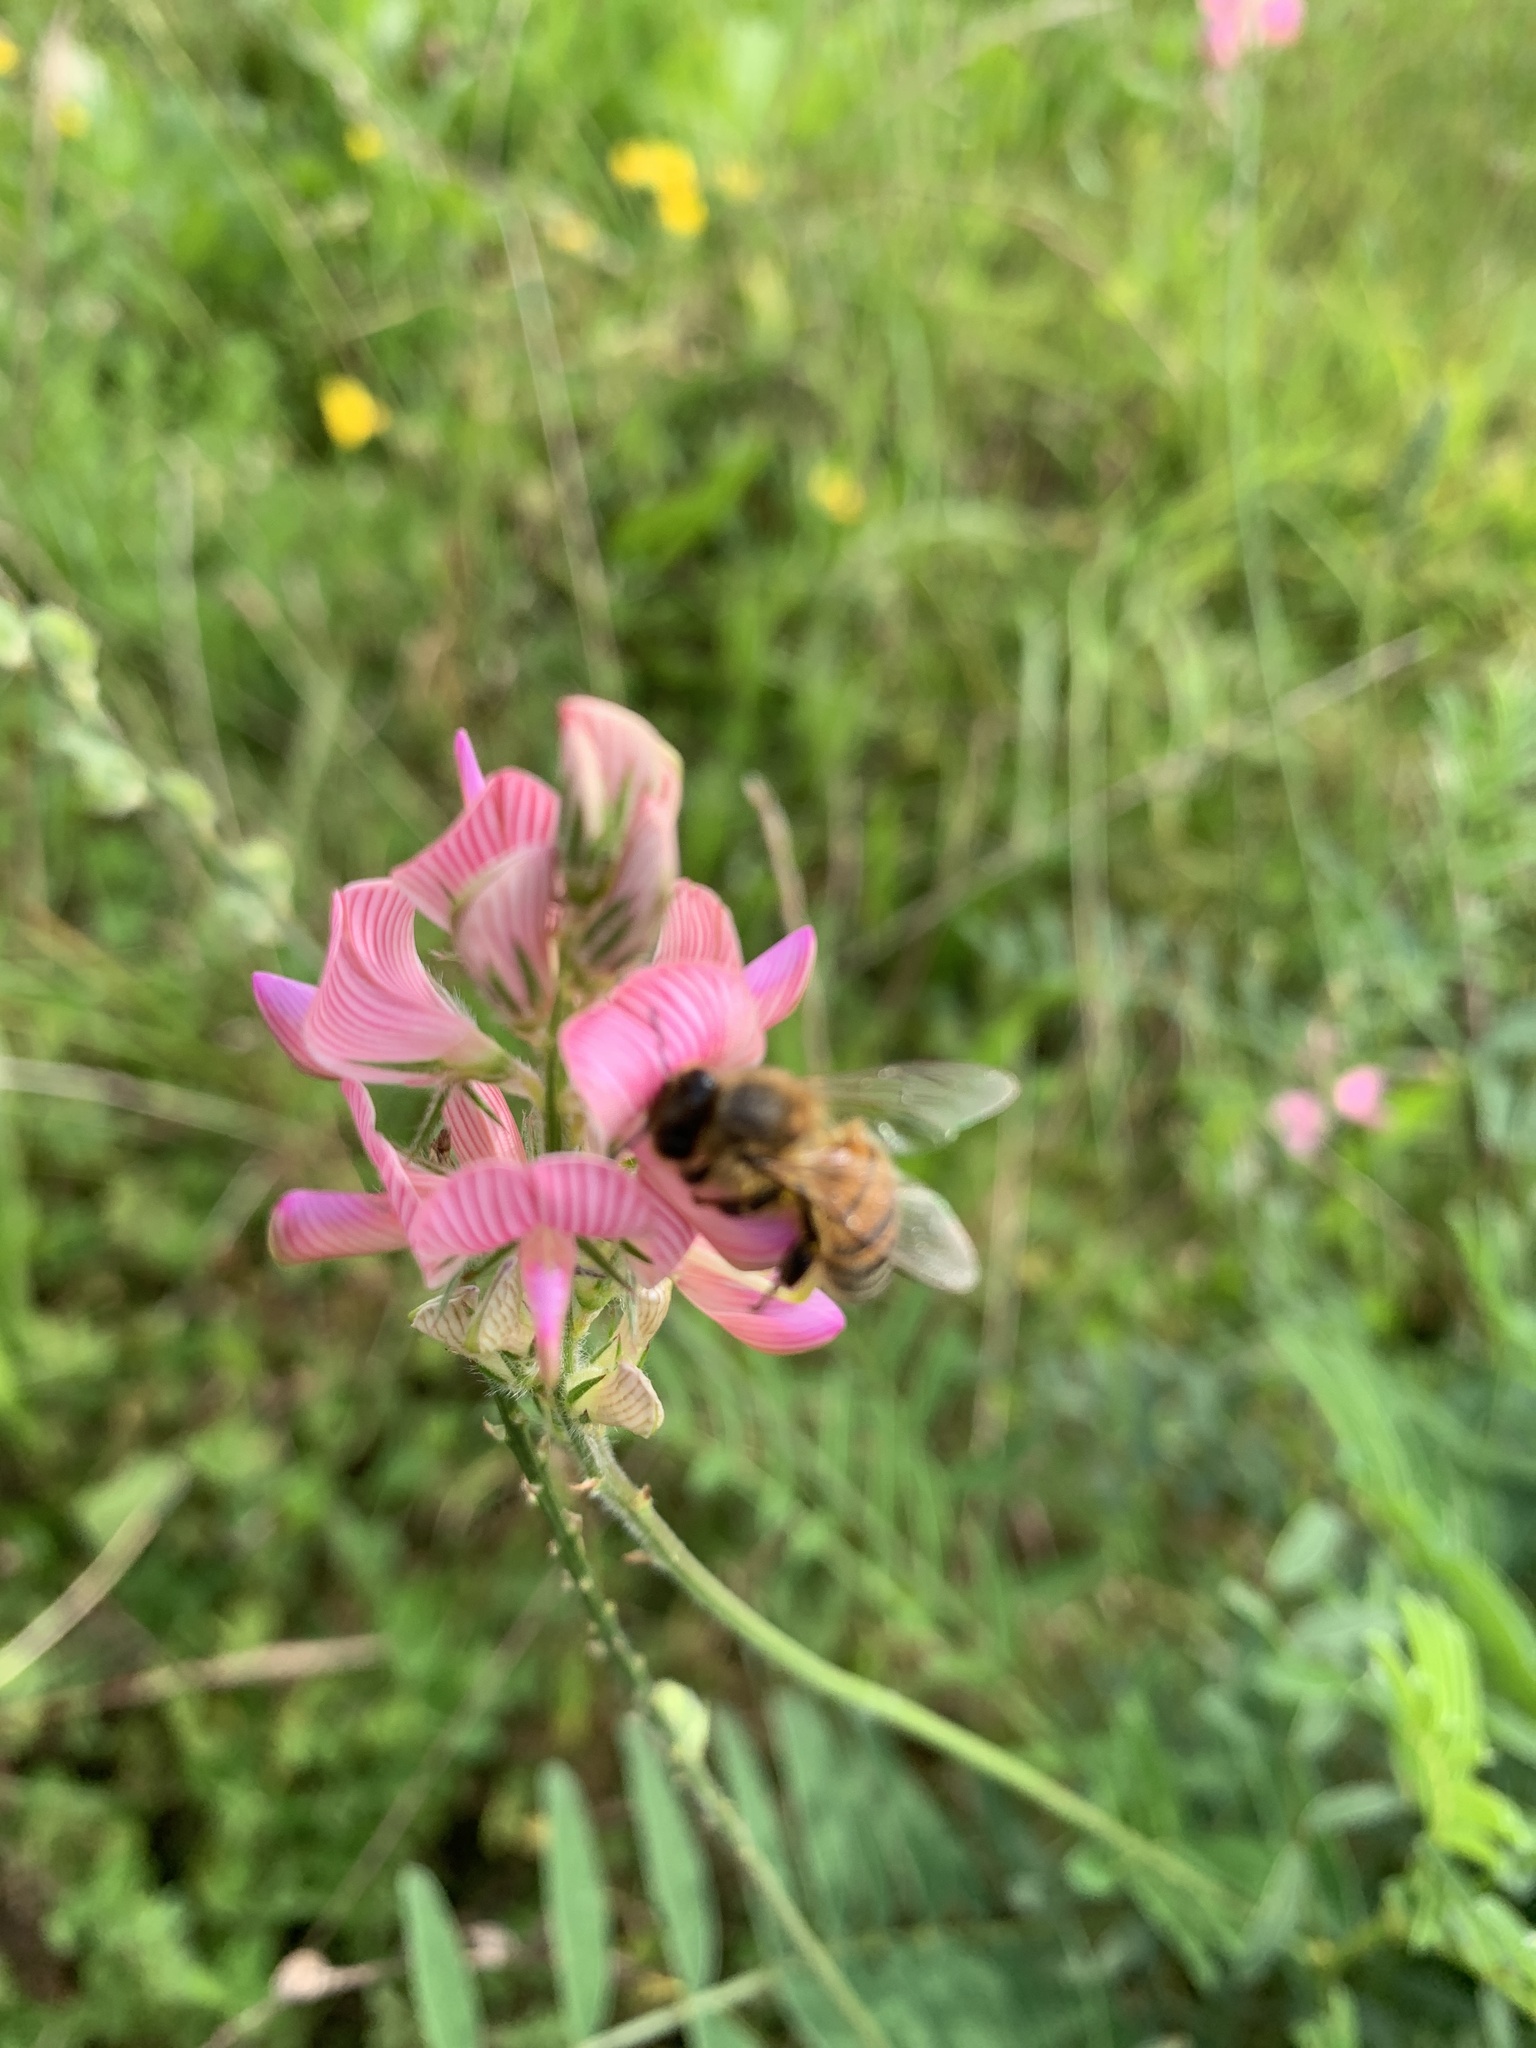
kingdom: Plantae
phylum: Tracheophyta
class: Magnoliopsida
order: Fabales
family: Fabaceae
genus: Onobrychis
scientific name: Onobrychis viciifolia
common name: Sainfoin
